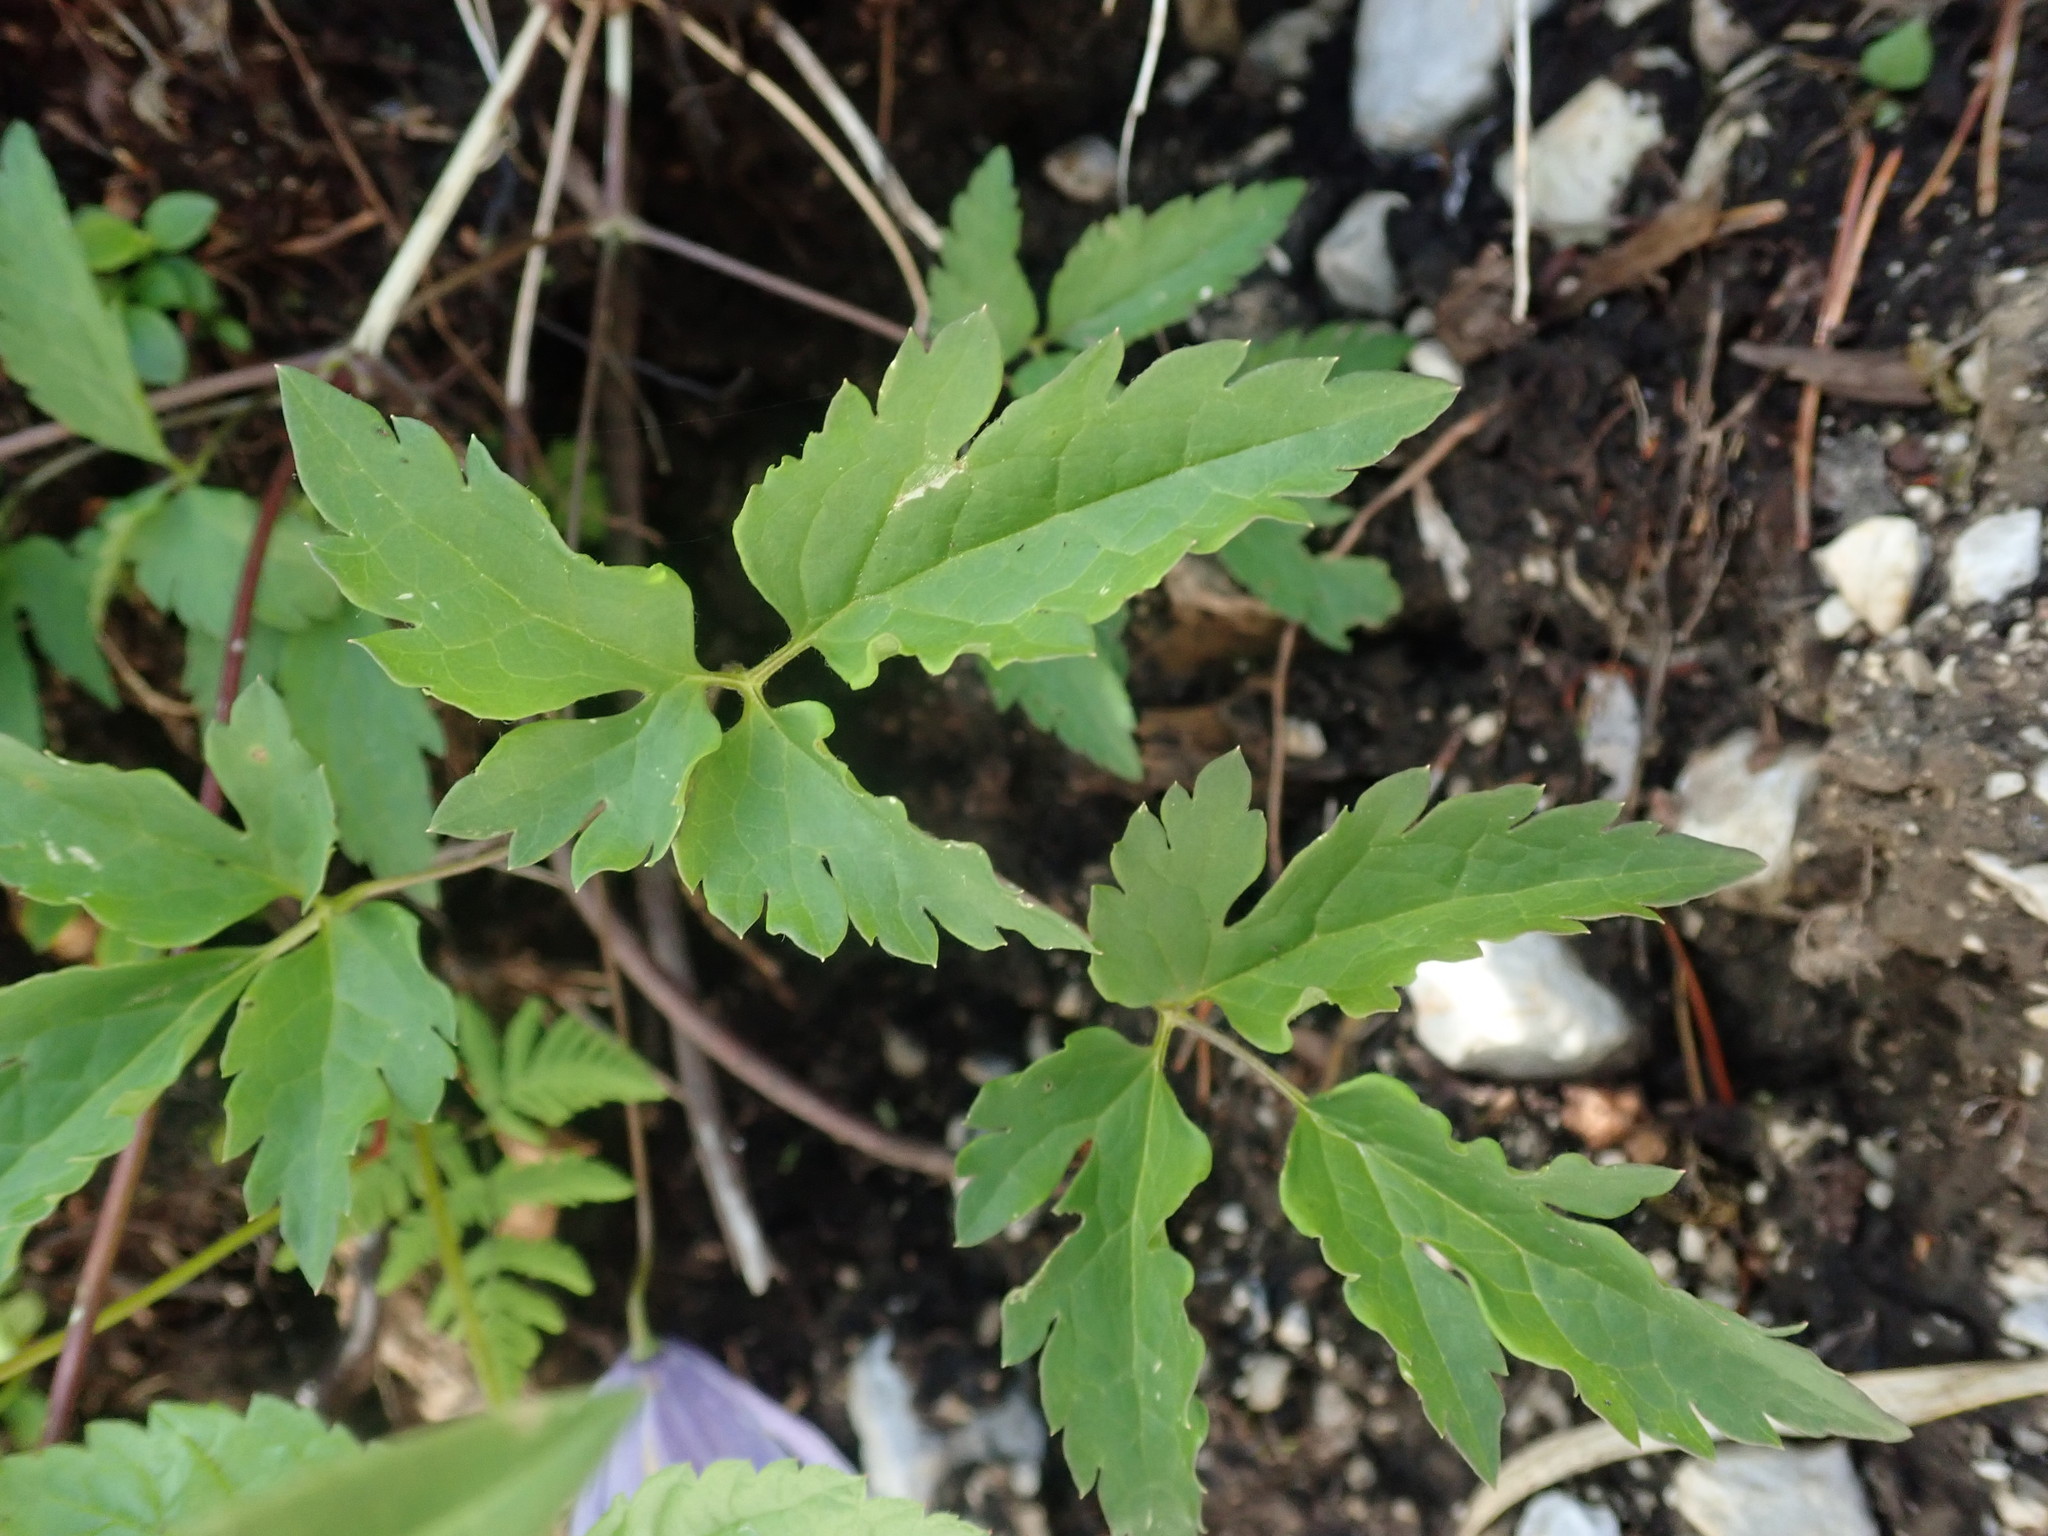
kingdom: Plantae
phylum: Tracheophyta
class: Magnoliopsida
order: Ranunculales
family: Ranunculaceae
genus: Clematis
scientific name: Clematis alpina
